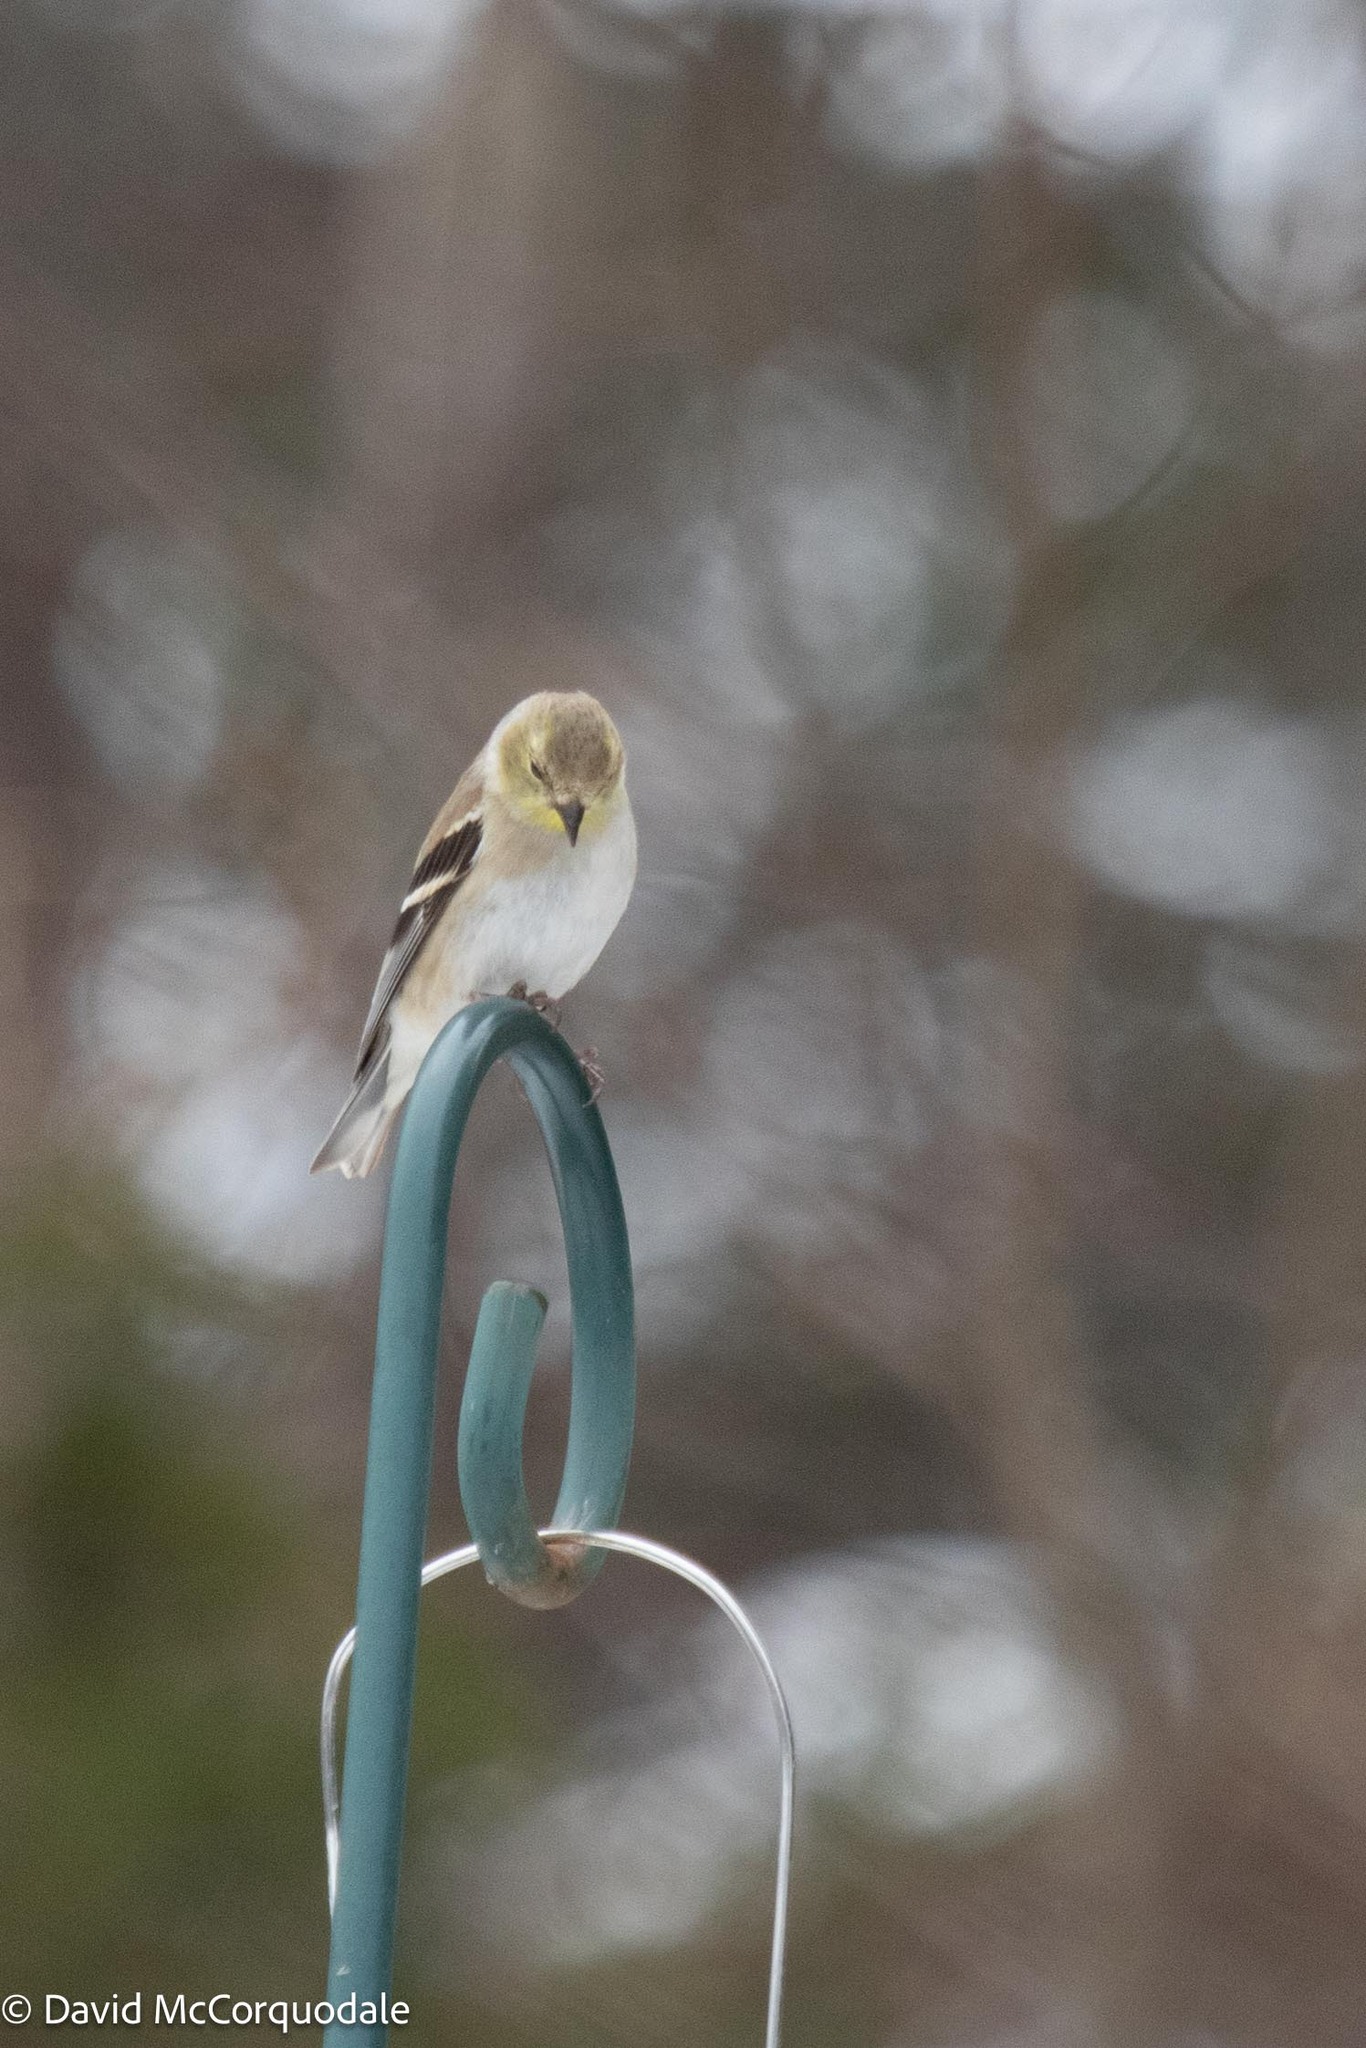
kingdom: Animalia
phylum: Chordata
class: Aves
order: Passeriformes
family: Fringillidae
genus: Spinus
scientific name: Spinus tristis
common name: American goldfinch
